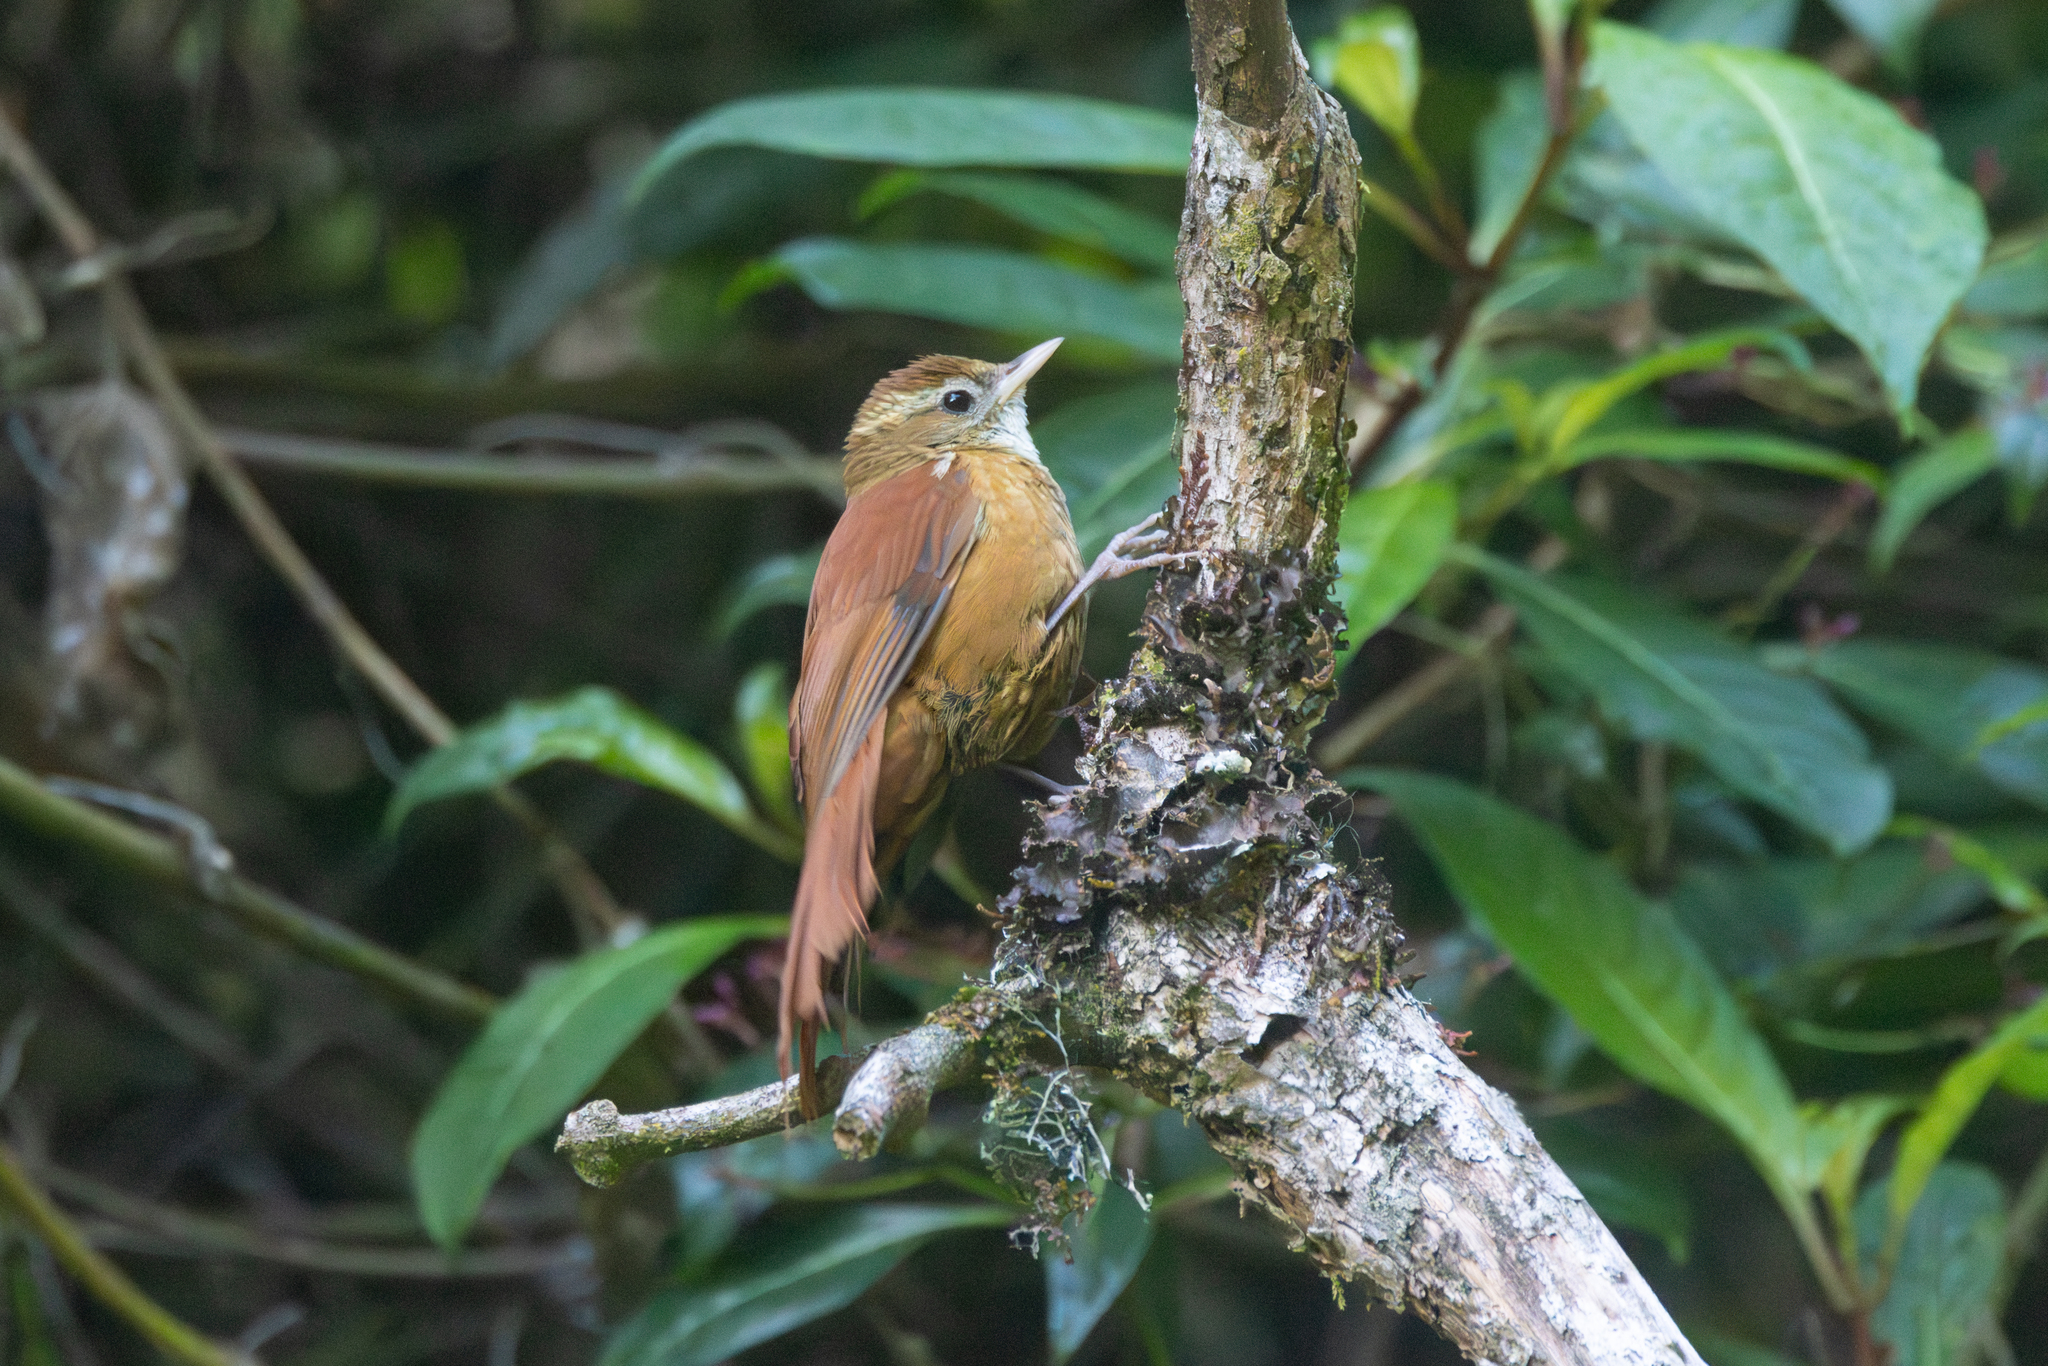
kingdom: Animalia
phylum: Chordata
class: Aves
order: Passeriformes
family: Furnariidae
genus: Margarornis
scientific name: Margarornis rubiginosus
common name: Ruddy treerunner
